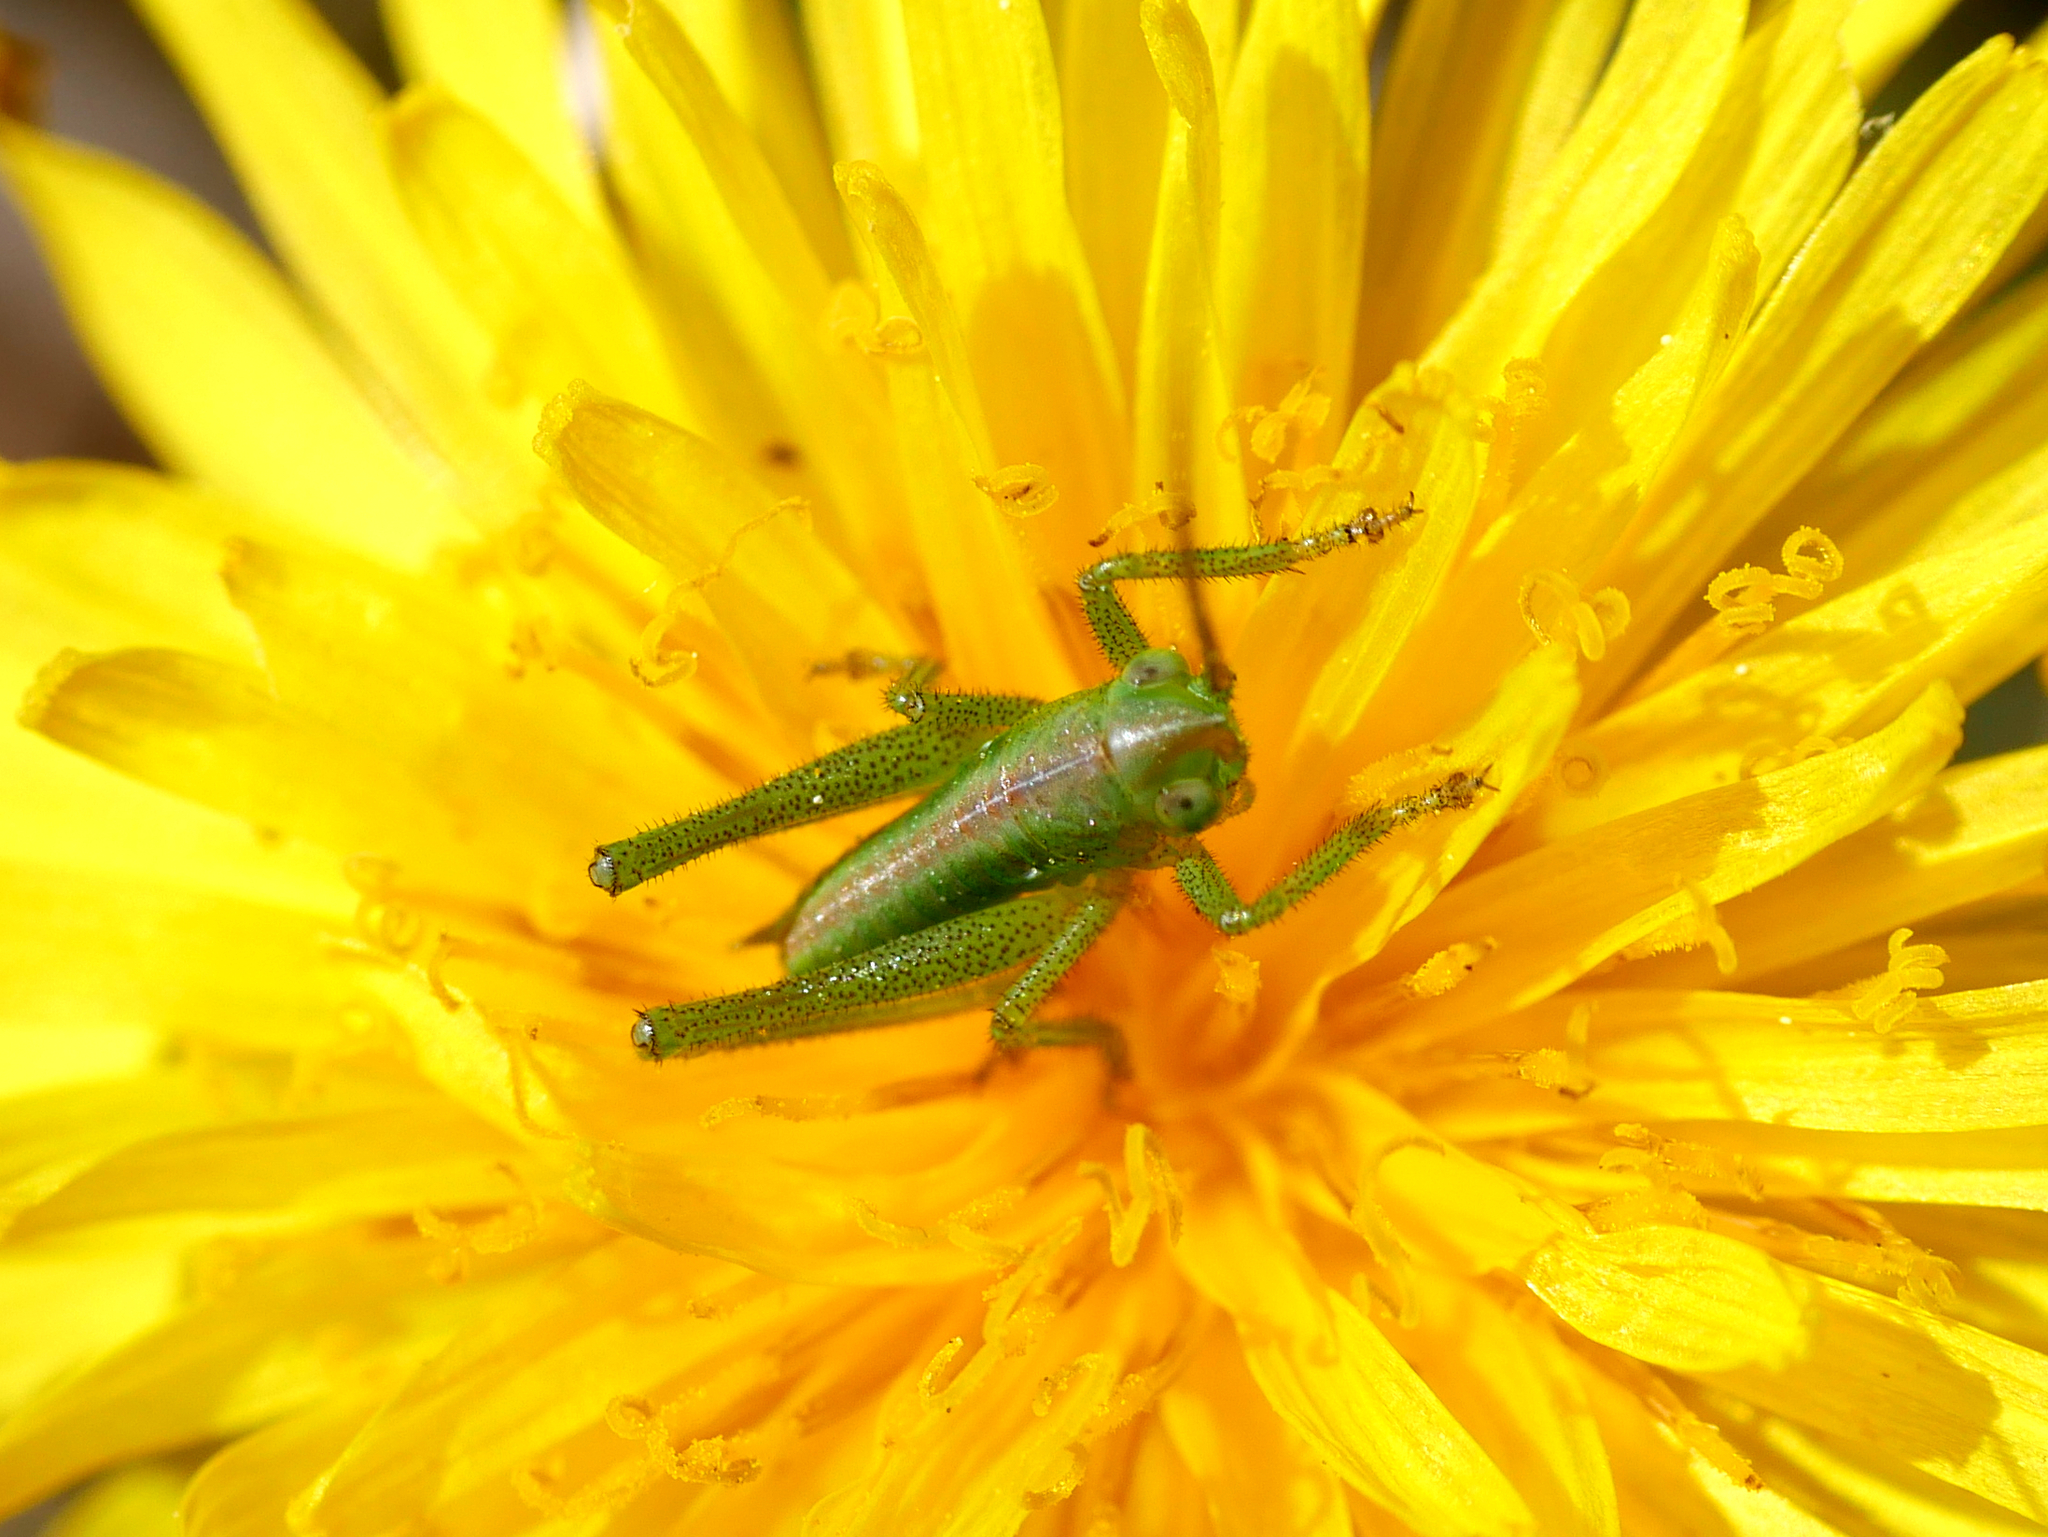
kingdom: Animalia
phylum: Arthropoda
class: Insecta
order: Orthoptera
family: Tettigoniidae
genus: Tettigonia
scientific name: Tettigonia viridissima
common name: Great green bush-cricket
